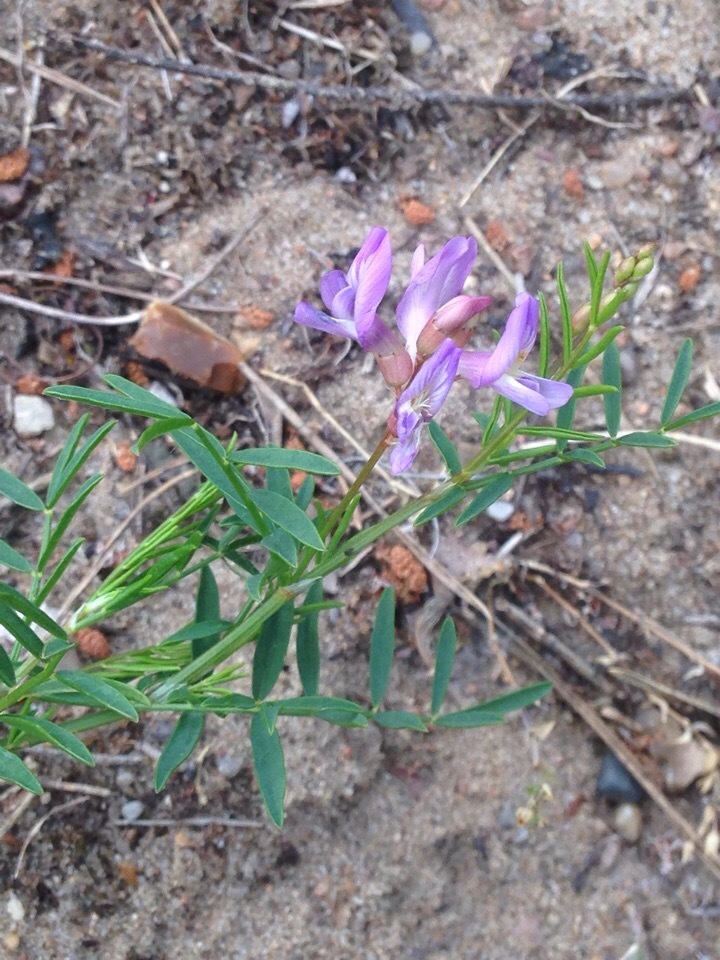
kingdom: Plantae
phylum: Tracheophyta
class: Magnoliopsida
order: Fabales
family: Fabaceae
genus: Astragalus
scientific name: Astragalus arenarius
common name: Arenarious milk-vetch
